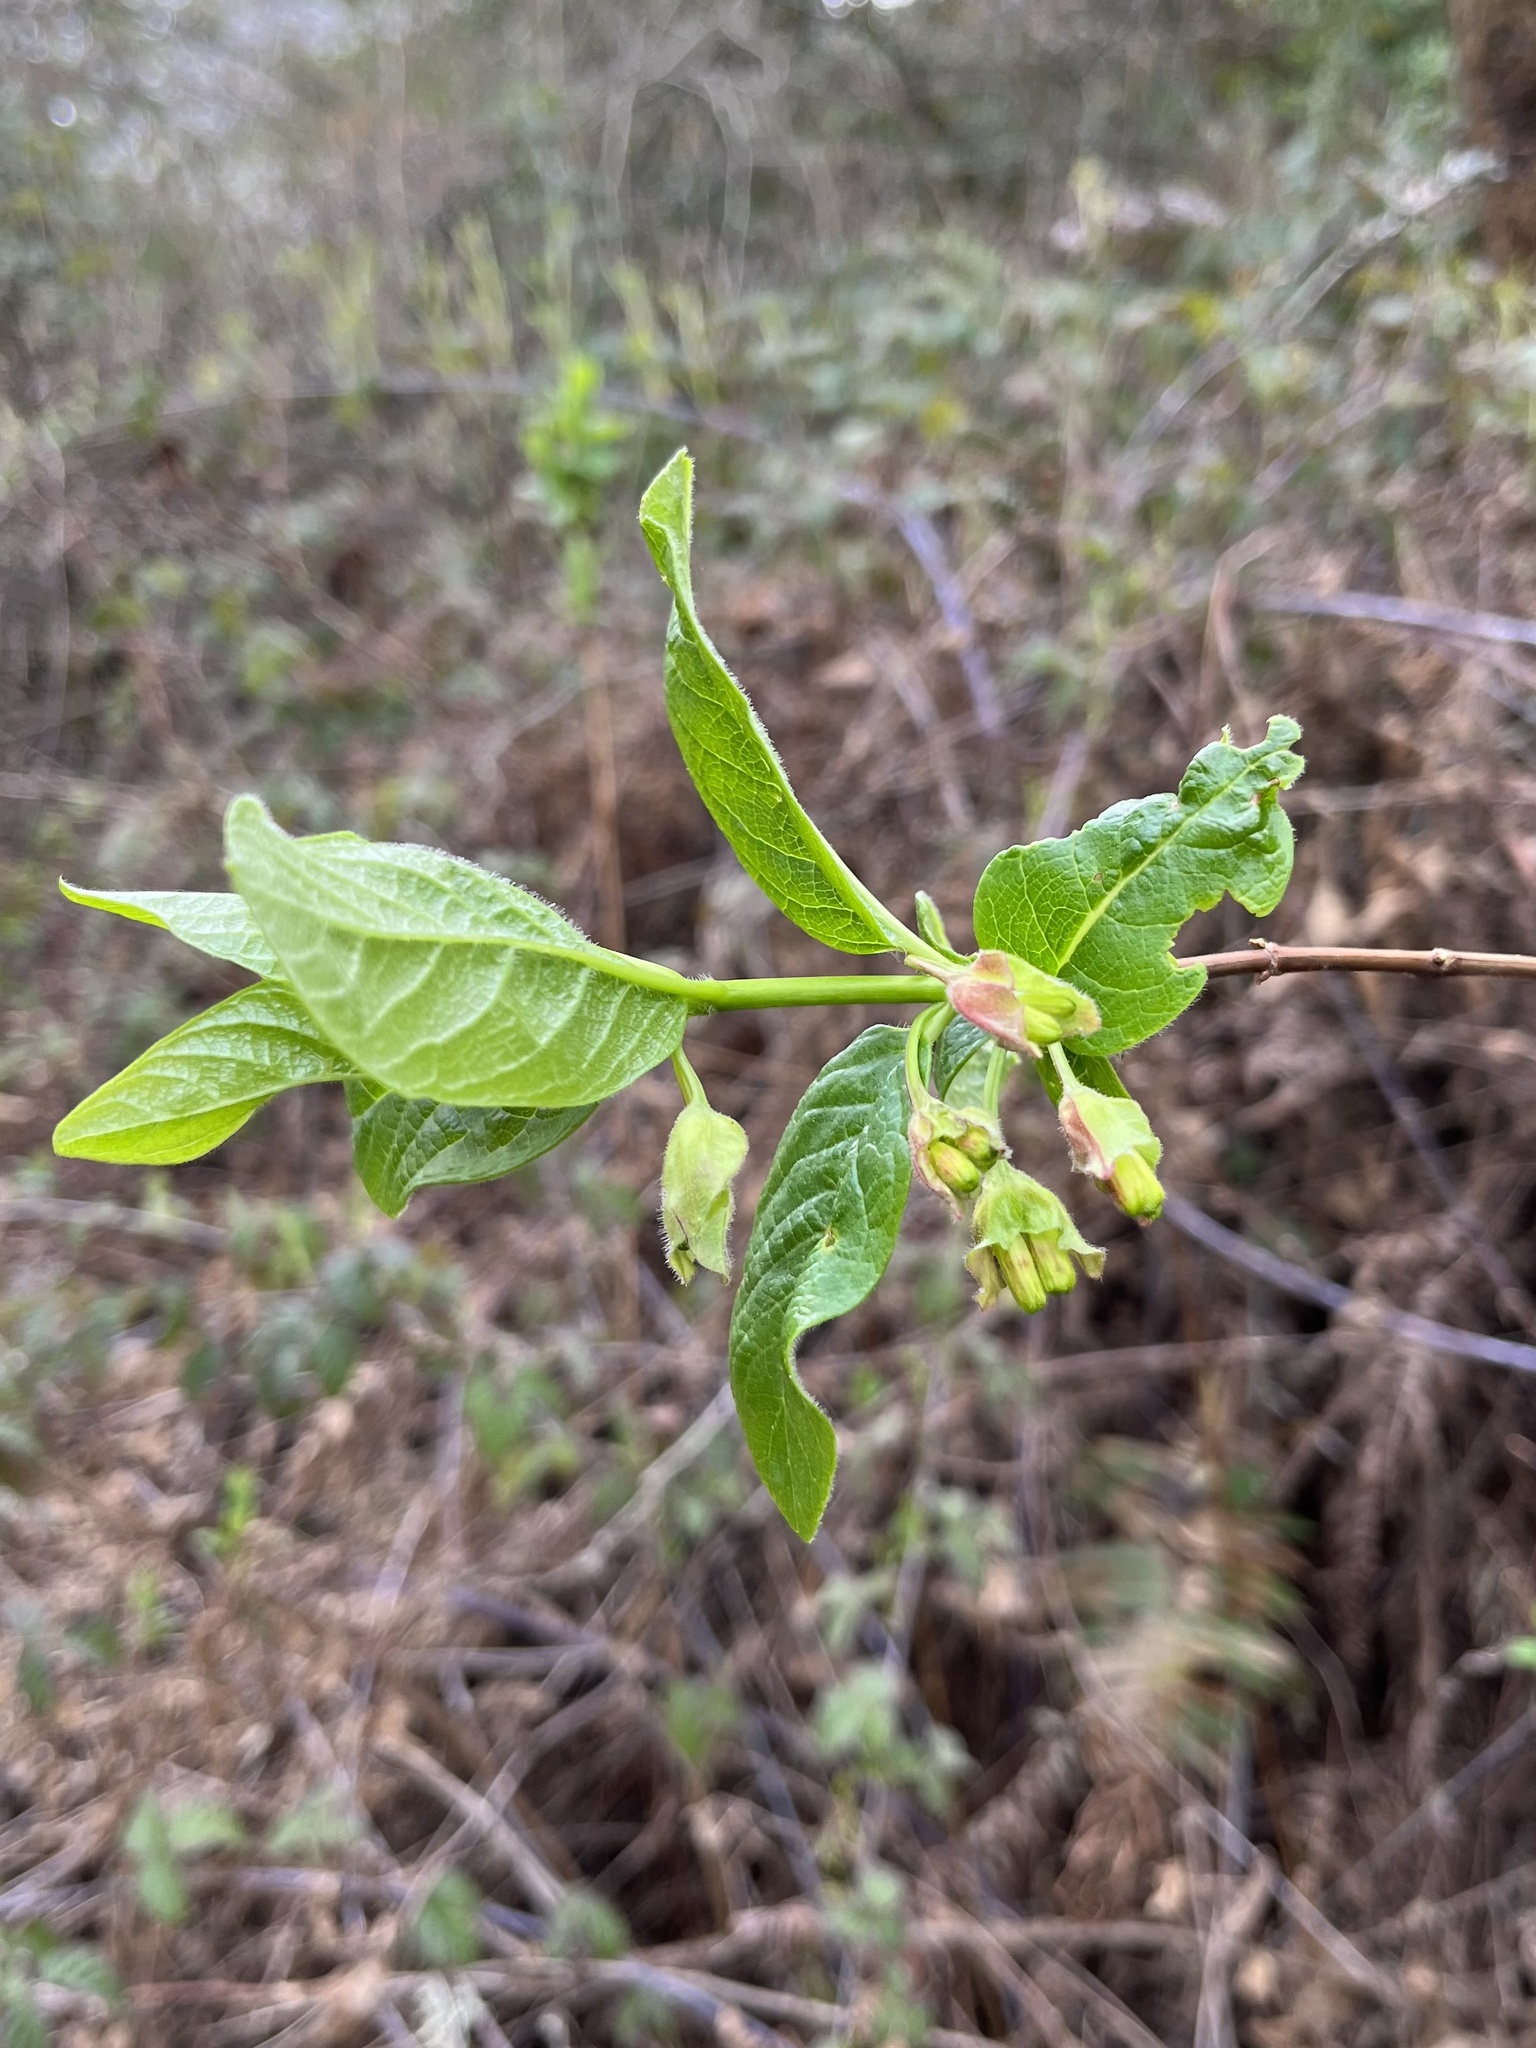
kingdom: Plantae
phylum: Tracheophyta
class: Magnoliopsida
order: Dipsacales
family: Caprifoliaceae
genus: Lonicera
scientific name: Lonicera involucrata
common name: Californian honeysuckle
